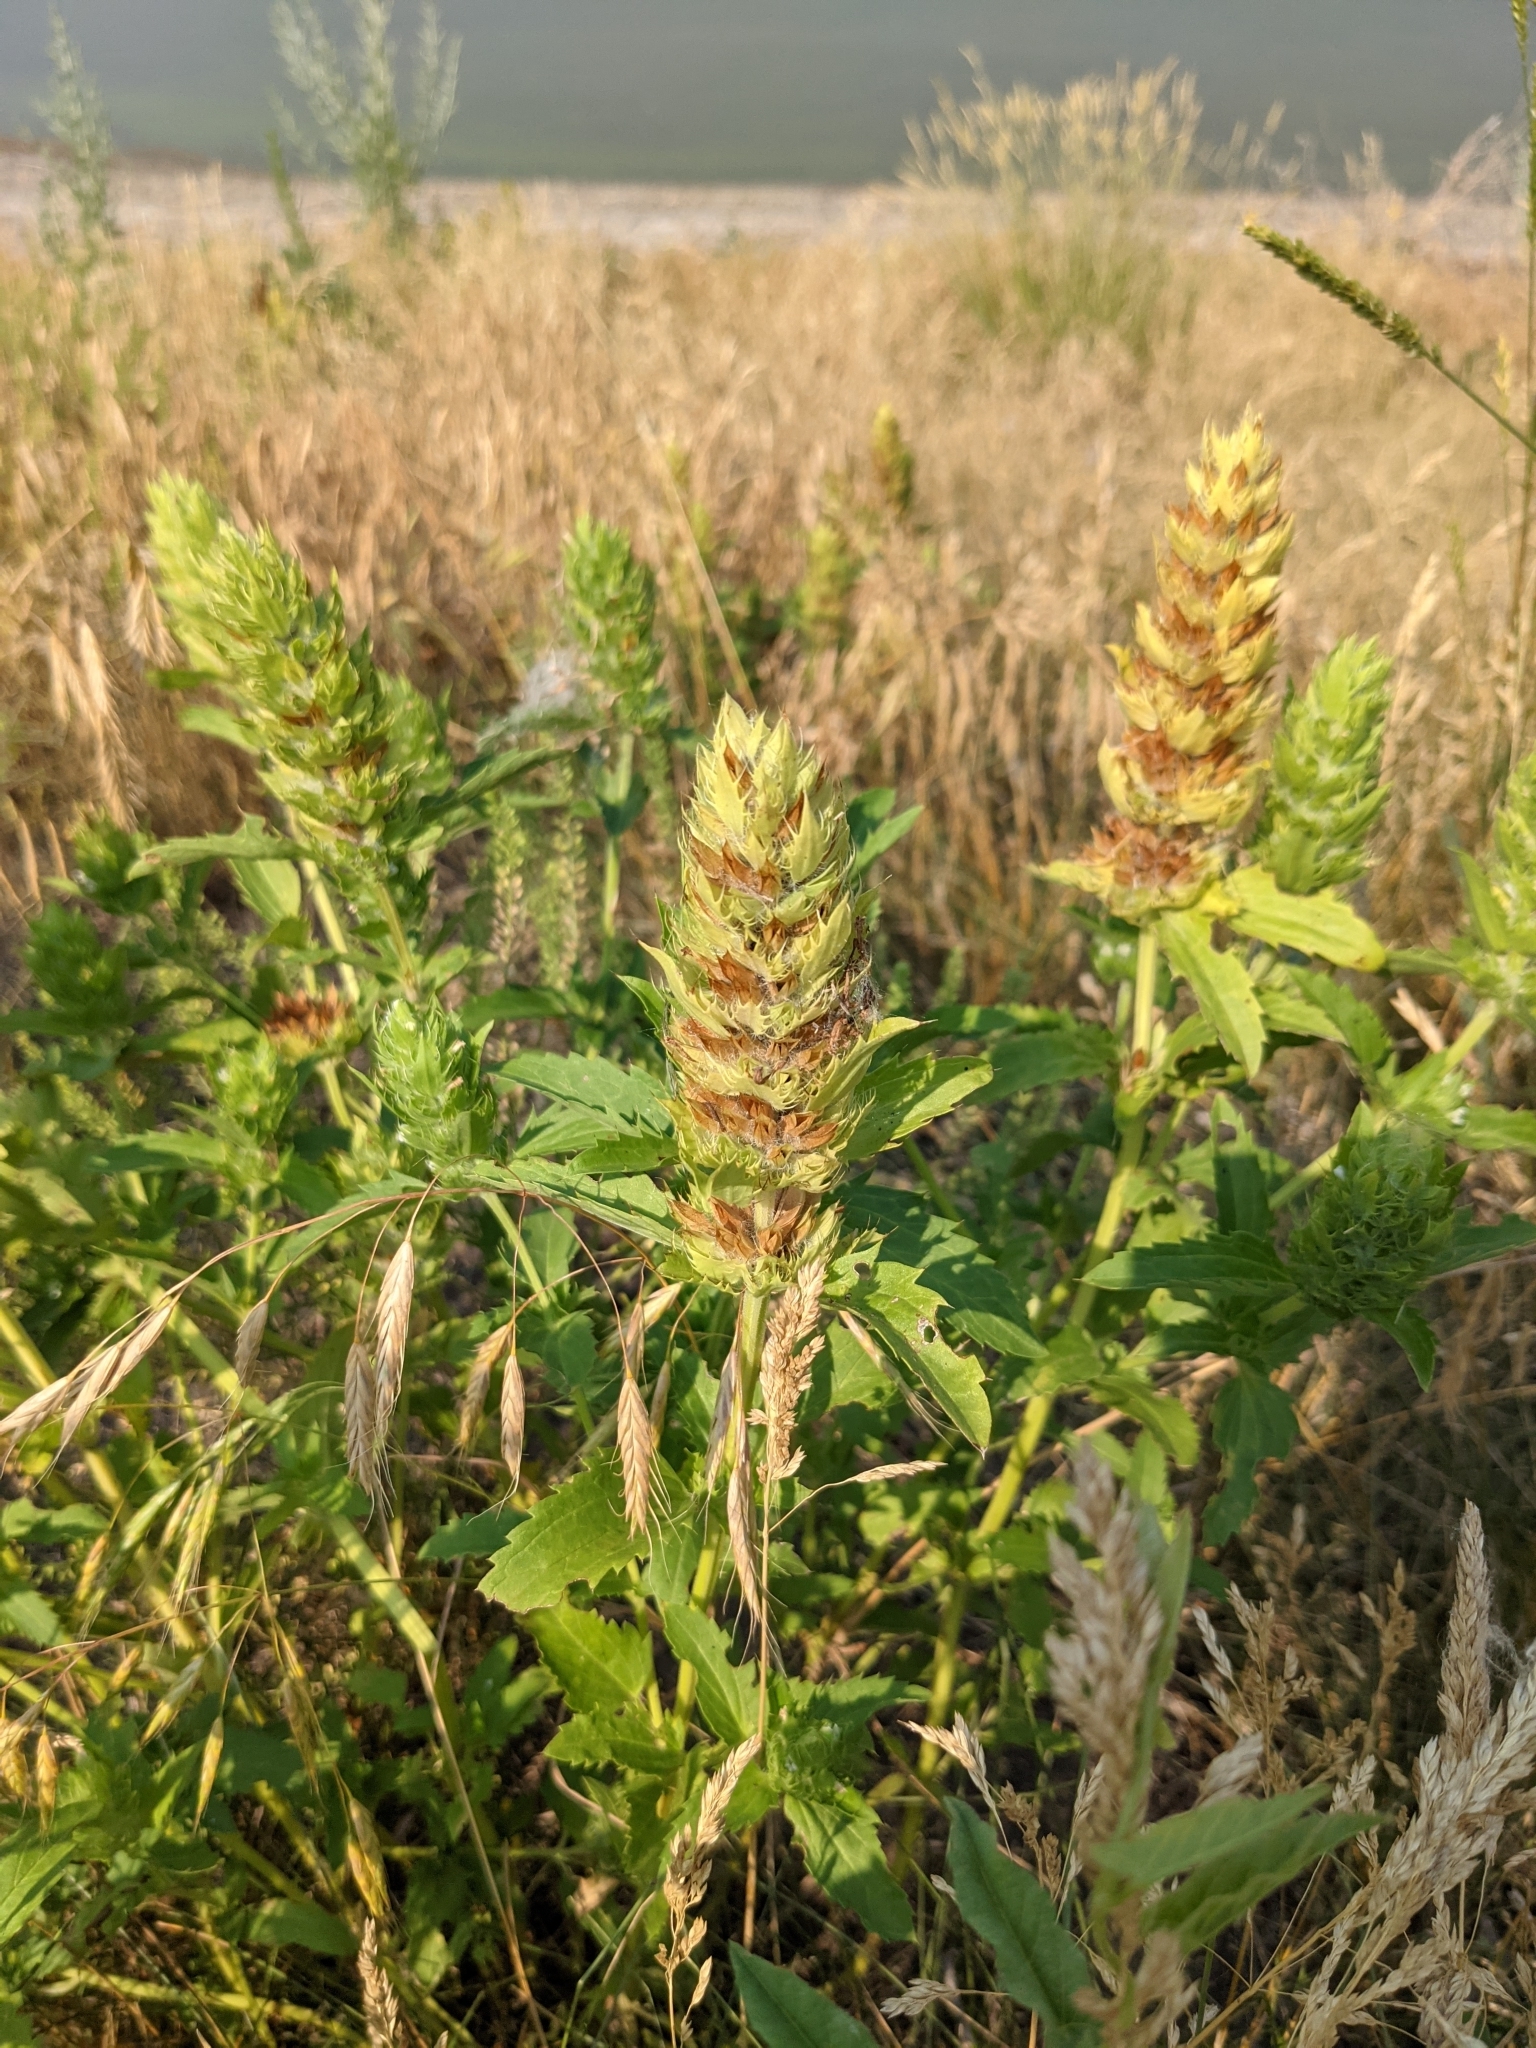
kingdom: Plantae
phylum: Tracheophyta
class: Magnoliopsida
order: Lamiales
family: Lamiaceae
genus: Dracocephalum
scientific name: Dracocephalum parviflorum
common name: American dragonhead
